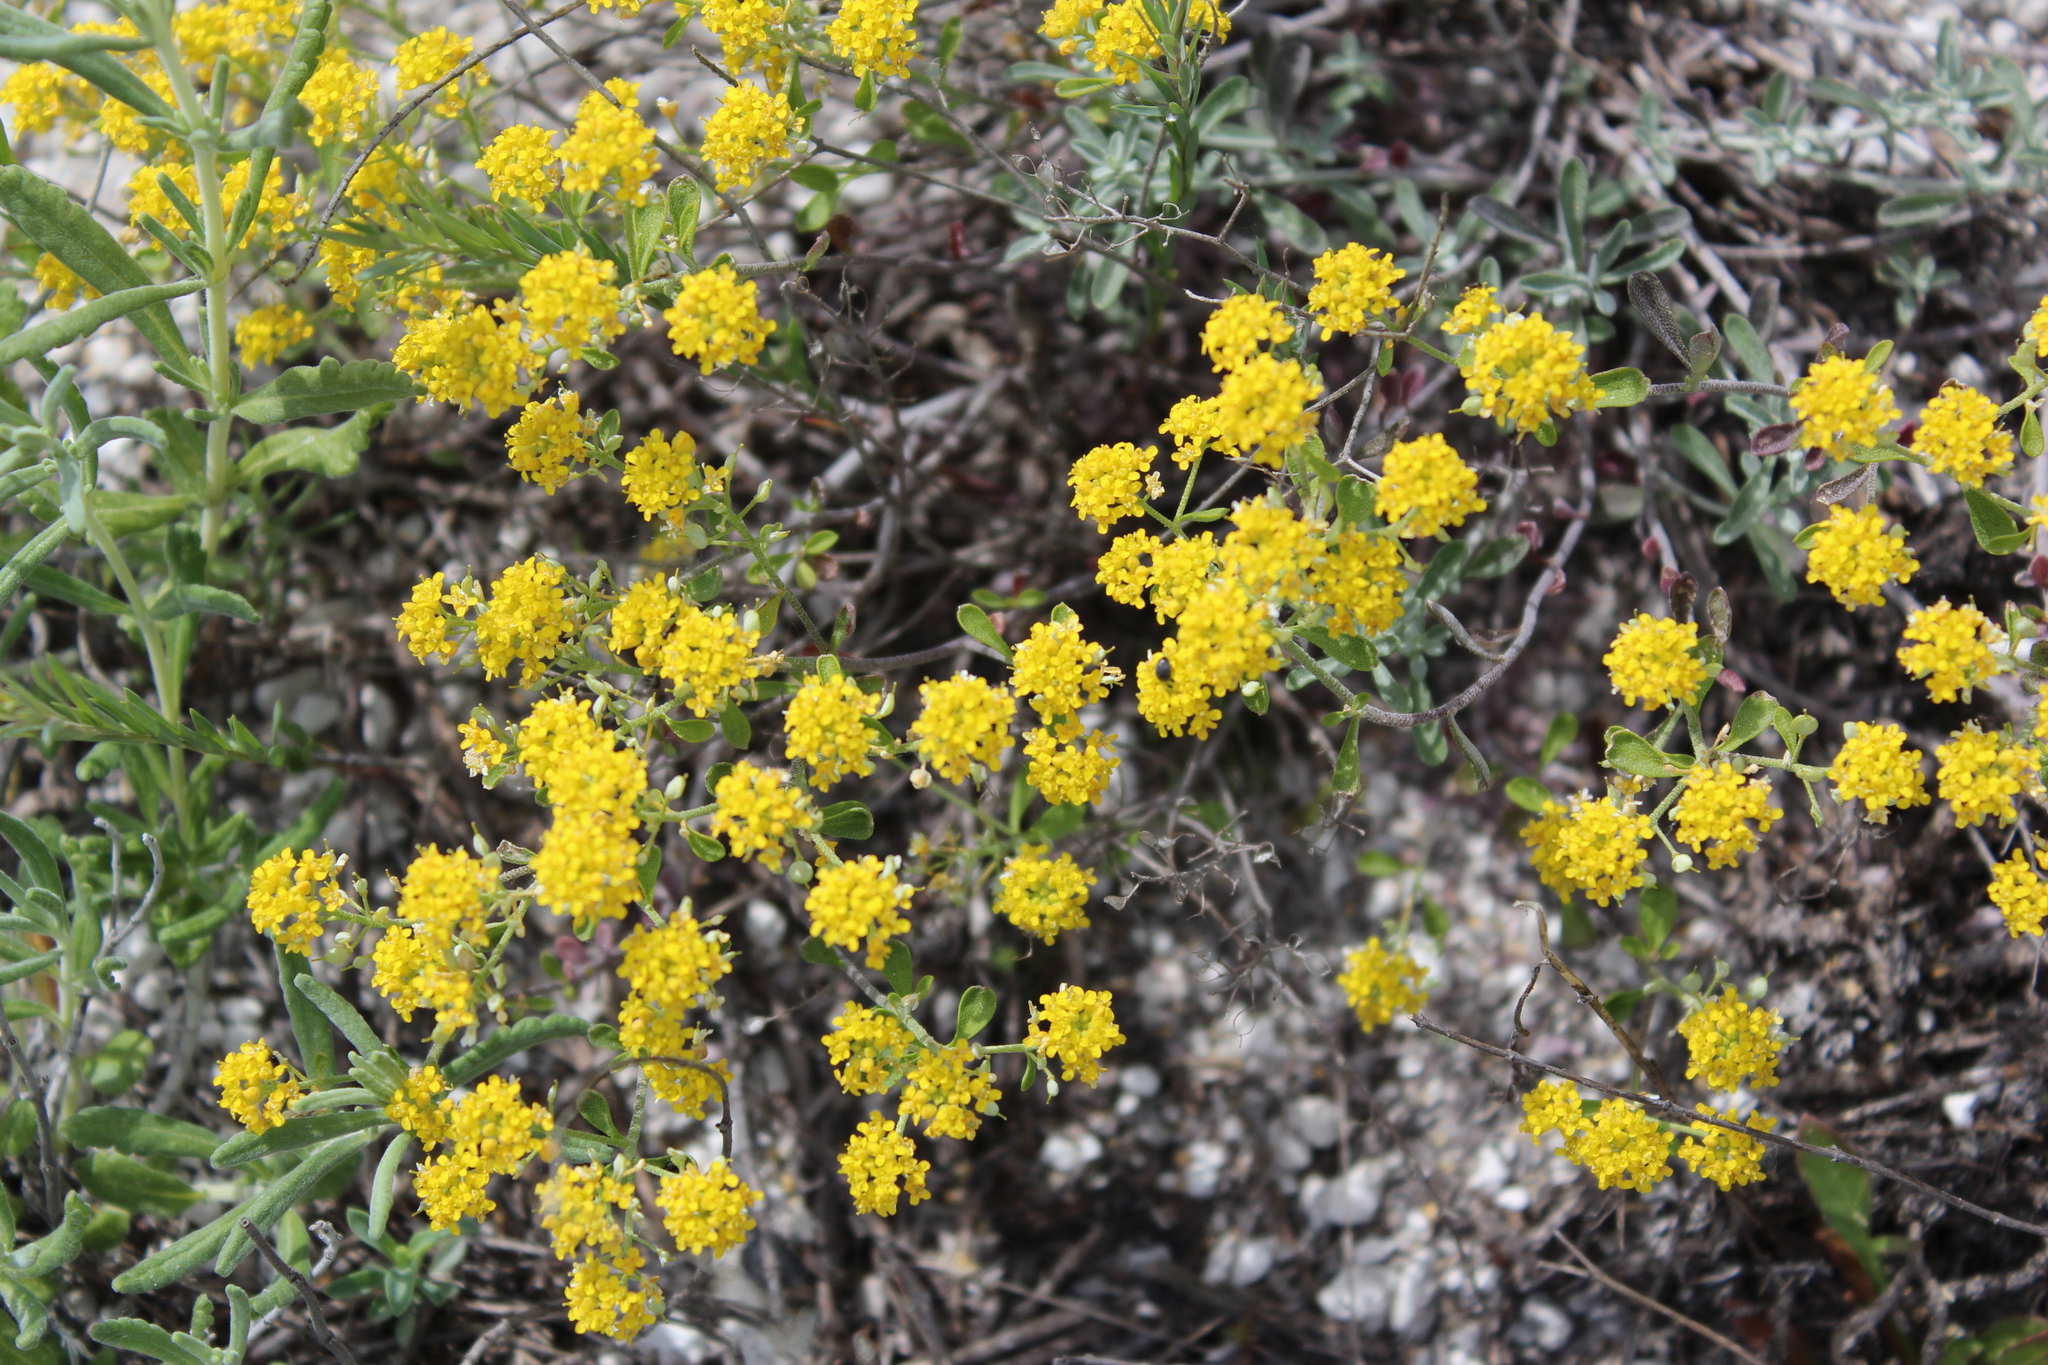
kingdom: Plantae
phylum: Tracheophyta
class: Magnoliopsida
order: Brassicales
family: Brassicaceae
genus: Odontarrhena
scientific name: Odontarrhena tortuosa
